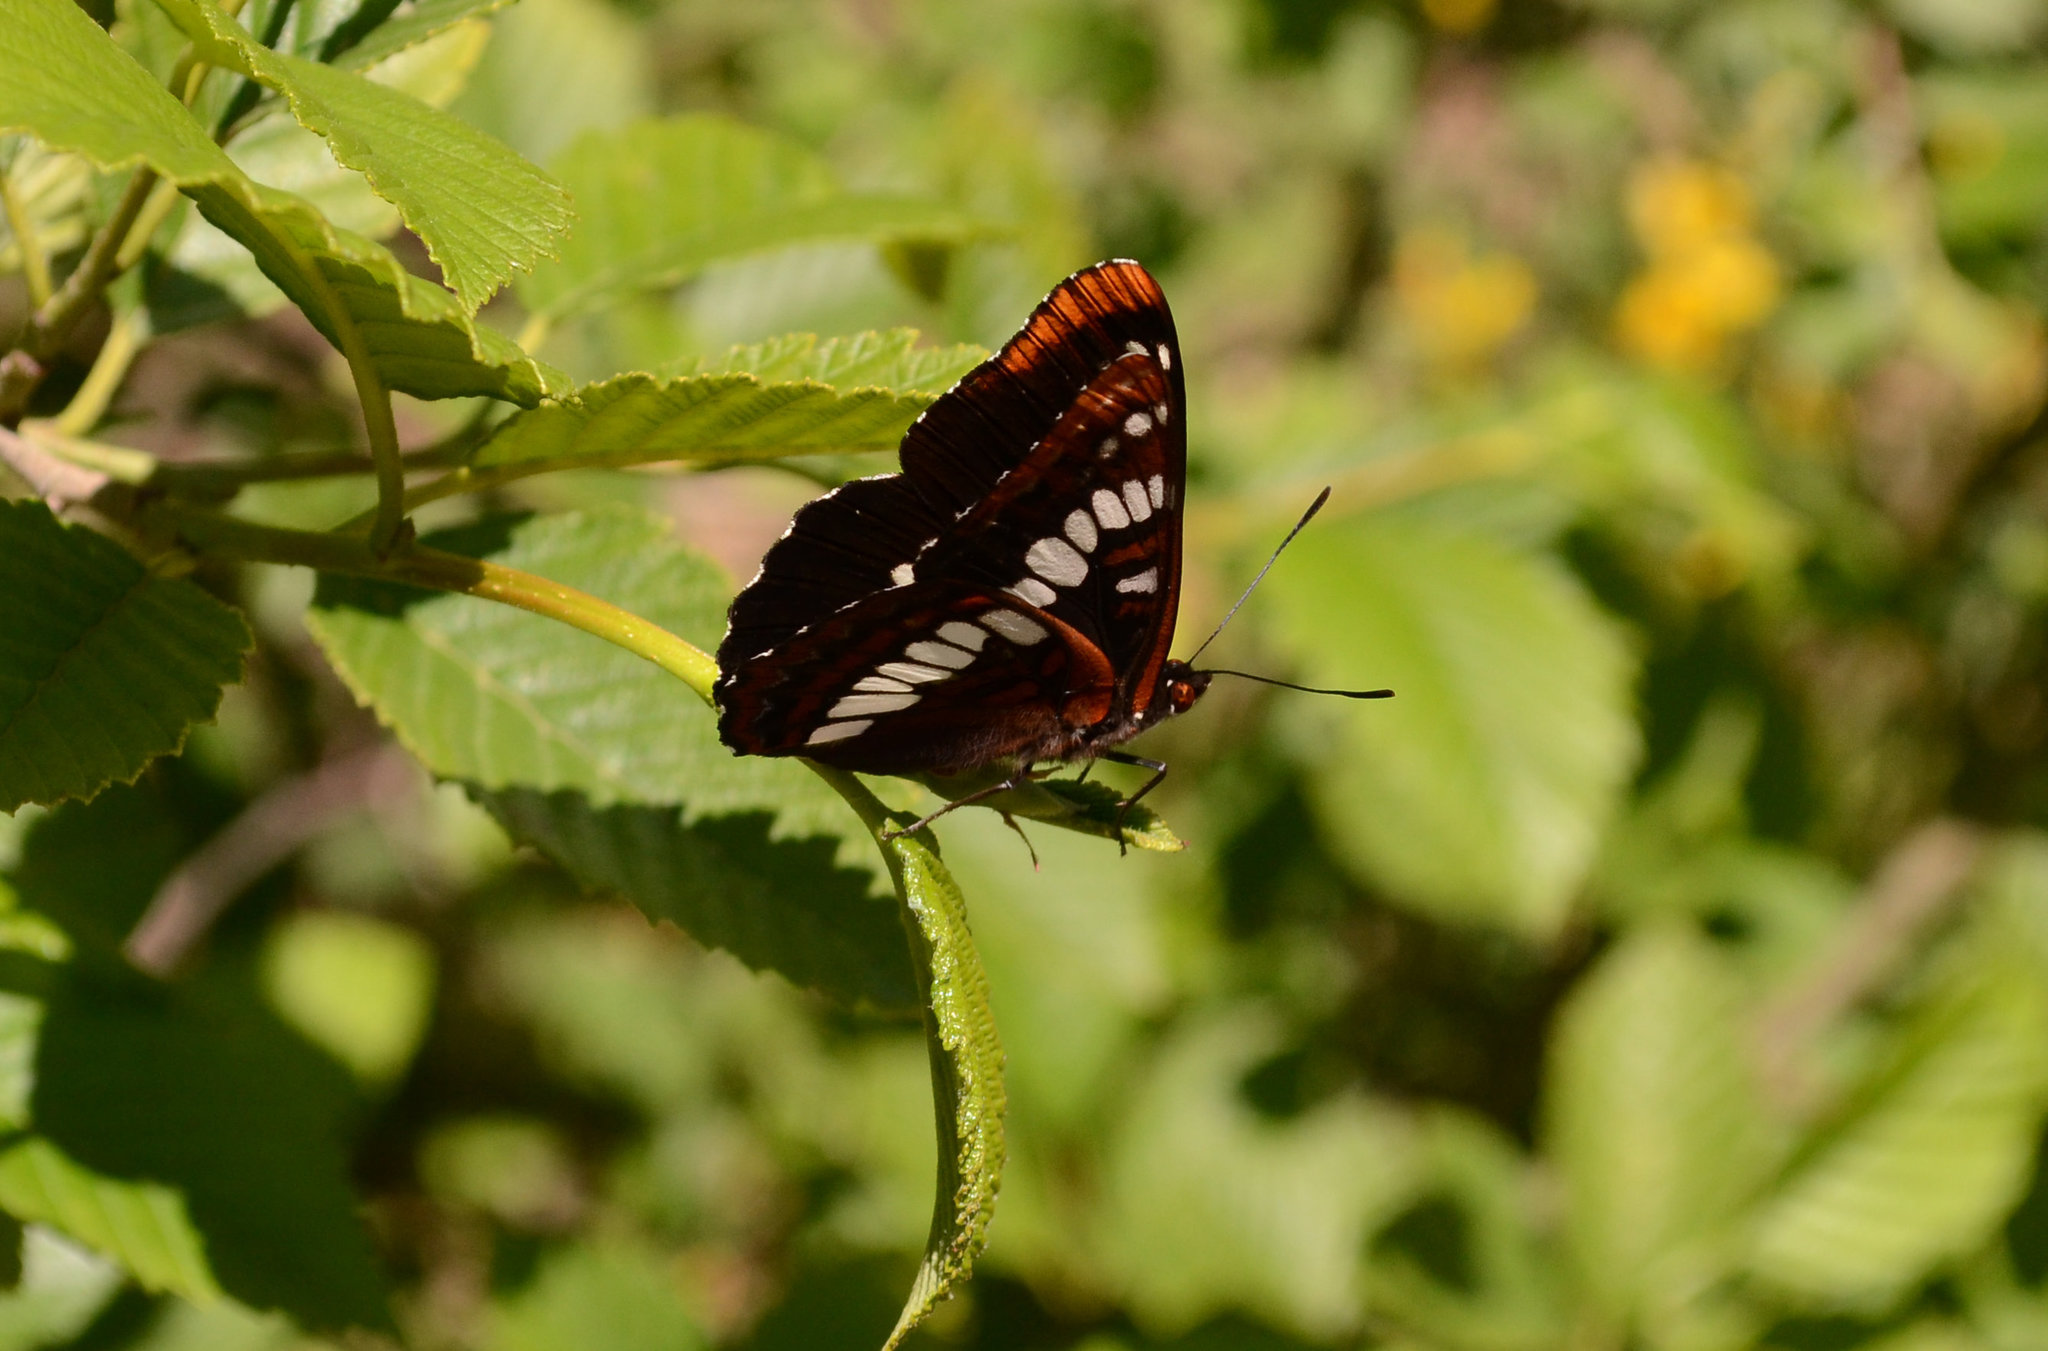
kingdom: Animalia
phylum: Arthropoda
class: Insecta
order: Lepidoptera
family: Nymphalidae
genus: Limenitis
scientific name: Limenitis lorquini
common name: Lorquin's admiral
